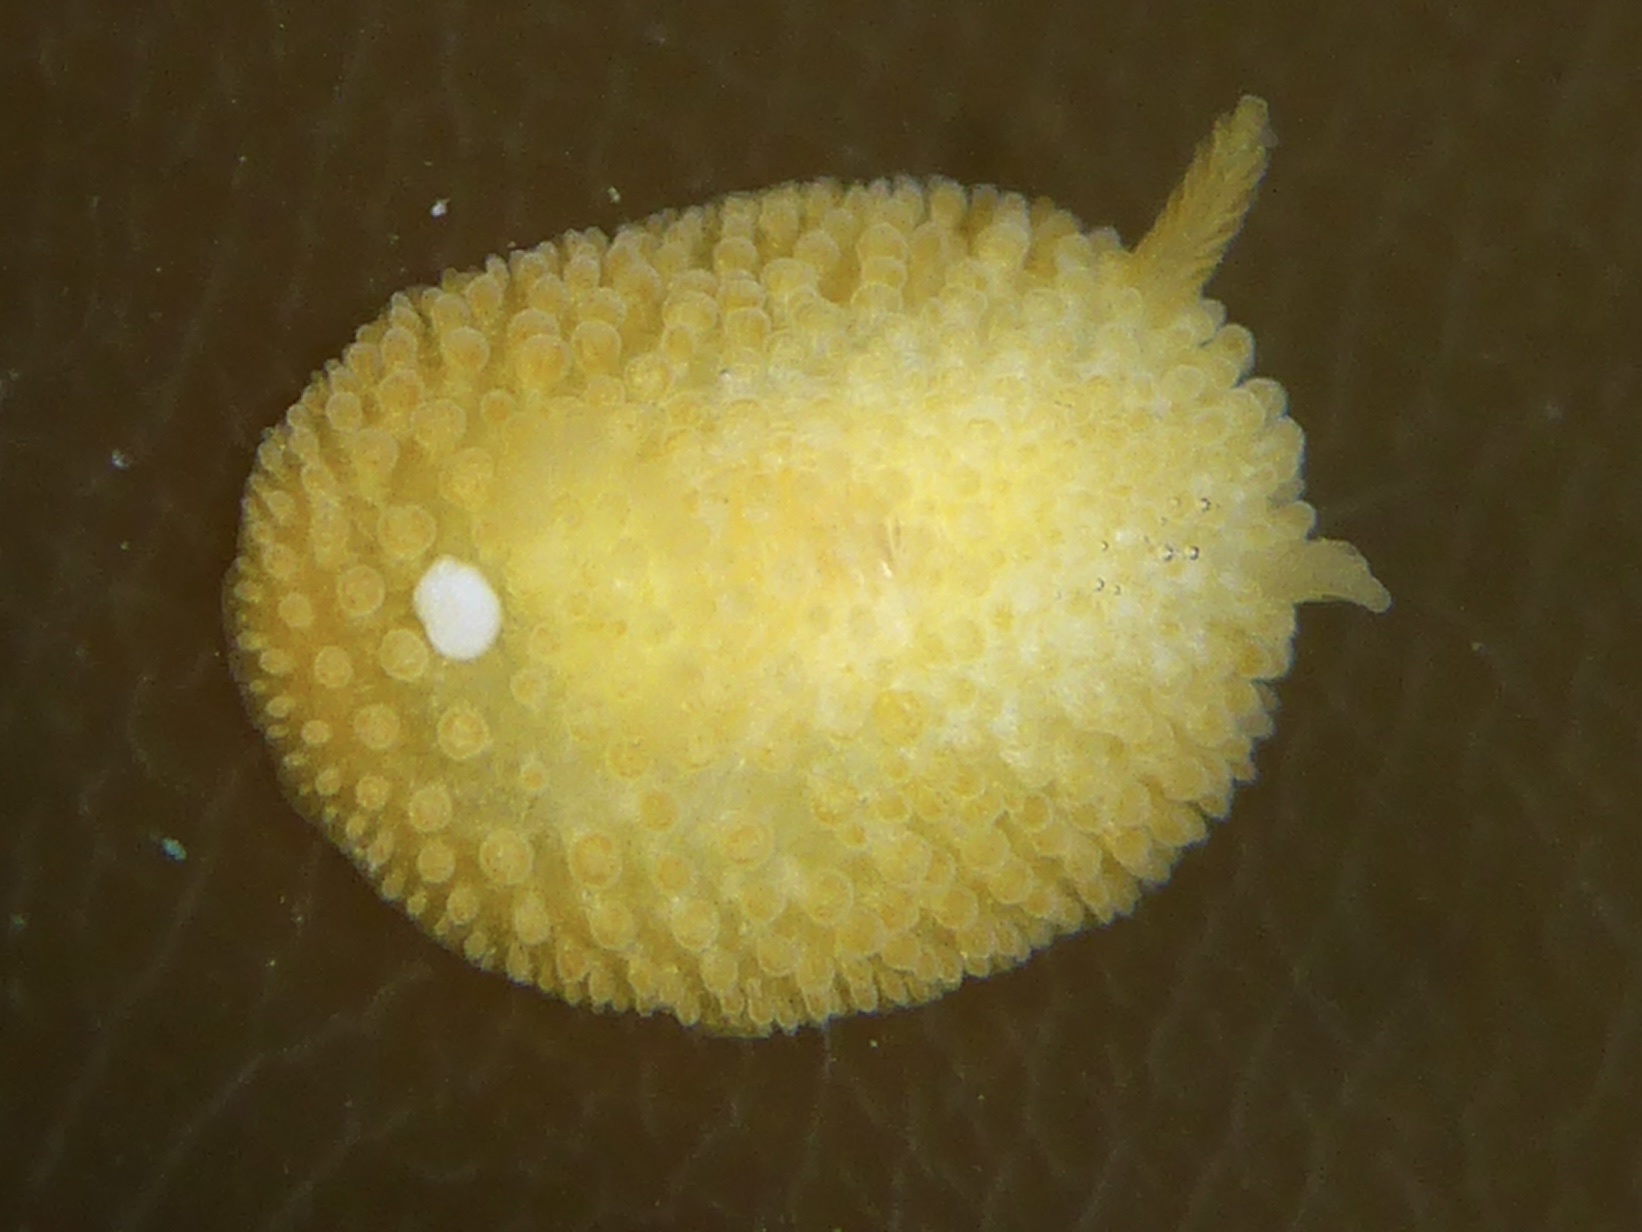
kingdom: Animalia
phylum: Mollusca
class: Gastropoda
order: Nudibranchia
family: Onchidorididae
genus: Atalodoris
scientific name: Atalodoris jannae
